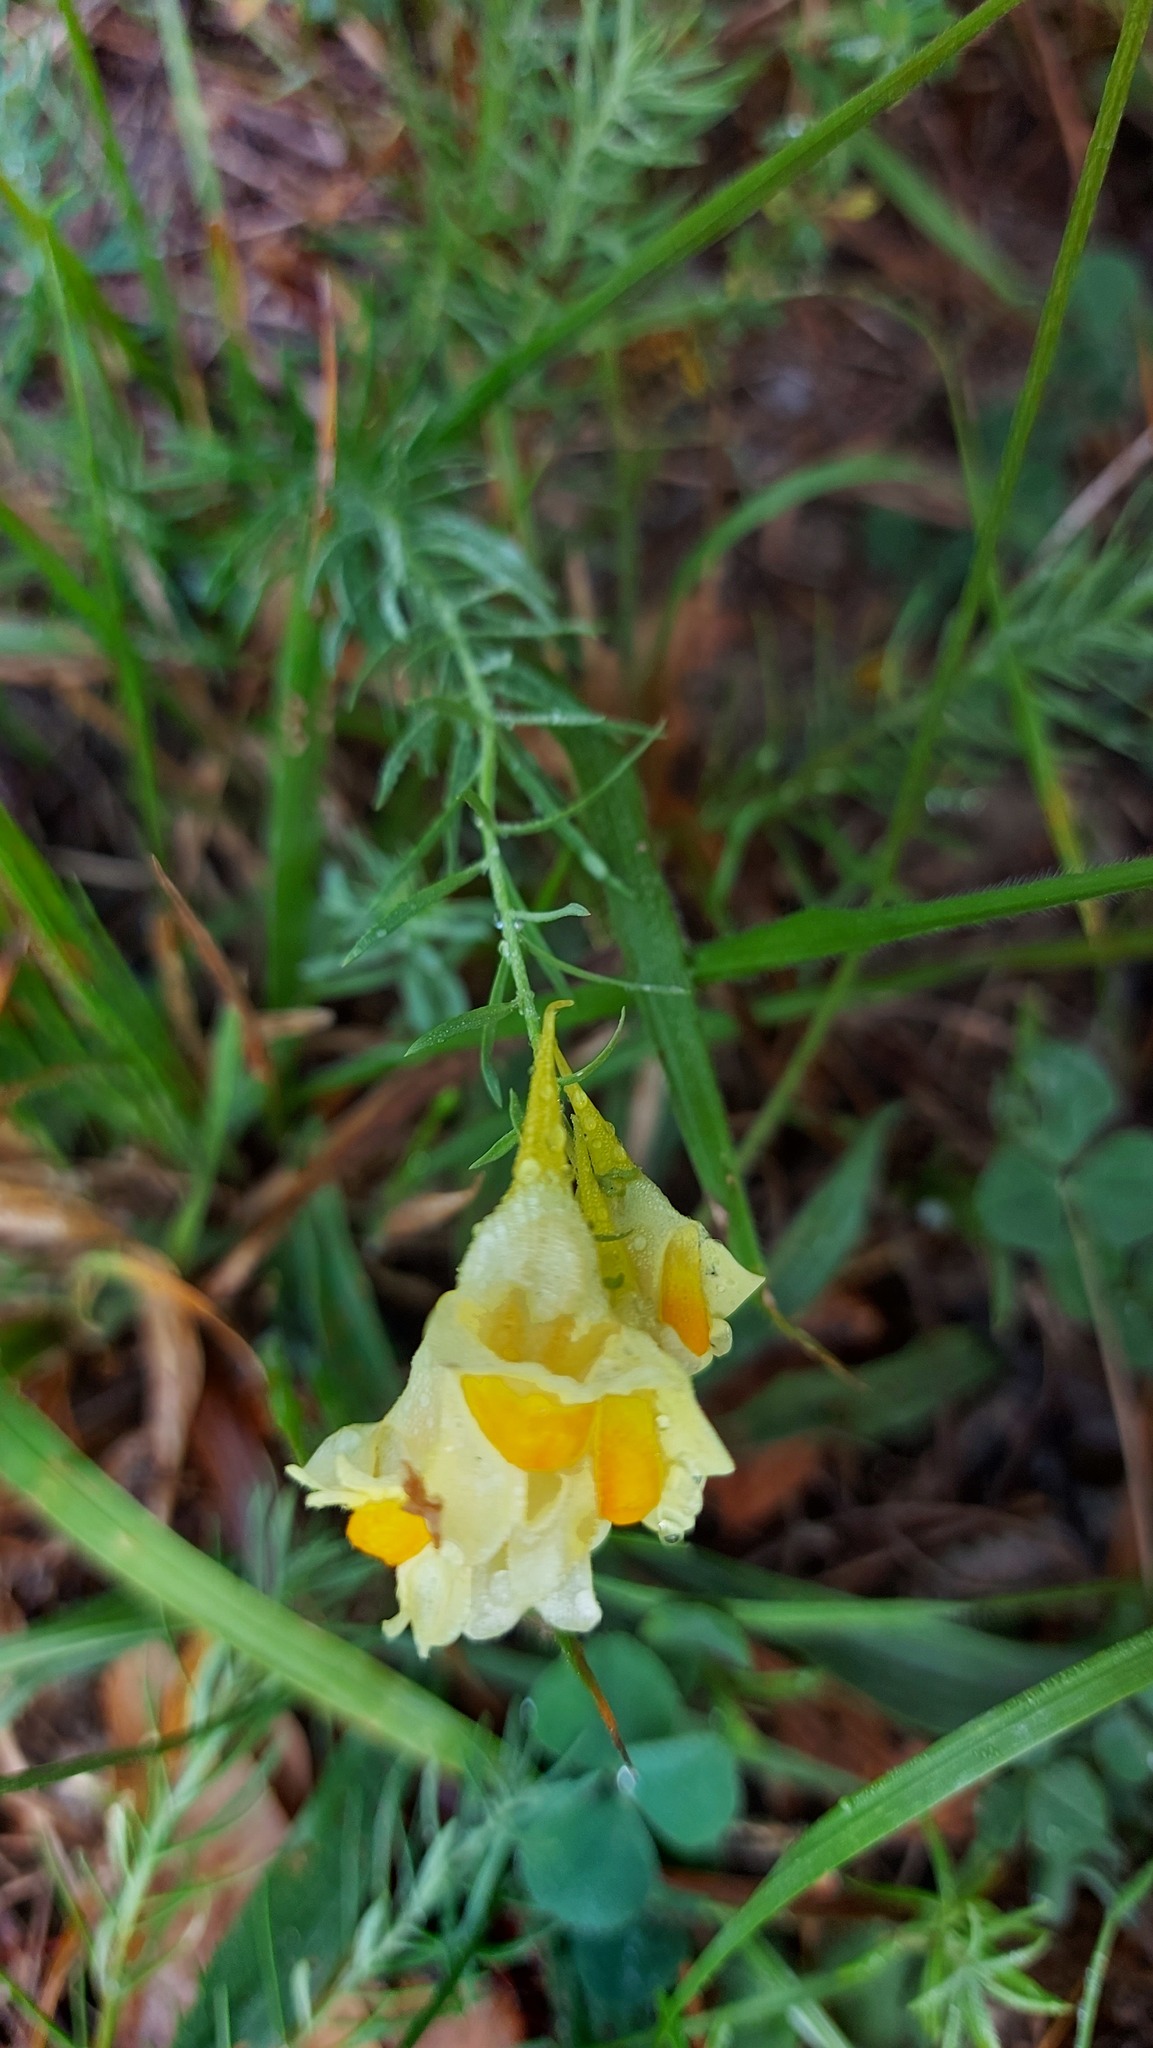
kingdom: Plantae
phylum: Tracheophyta
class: Magnoliopsida
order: Lamiales
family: Plantaginaceae
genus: Linaria
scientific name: Linaria vulgaris
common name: Butter and eggs
